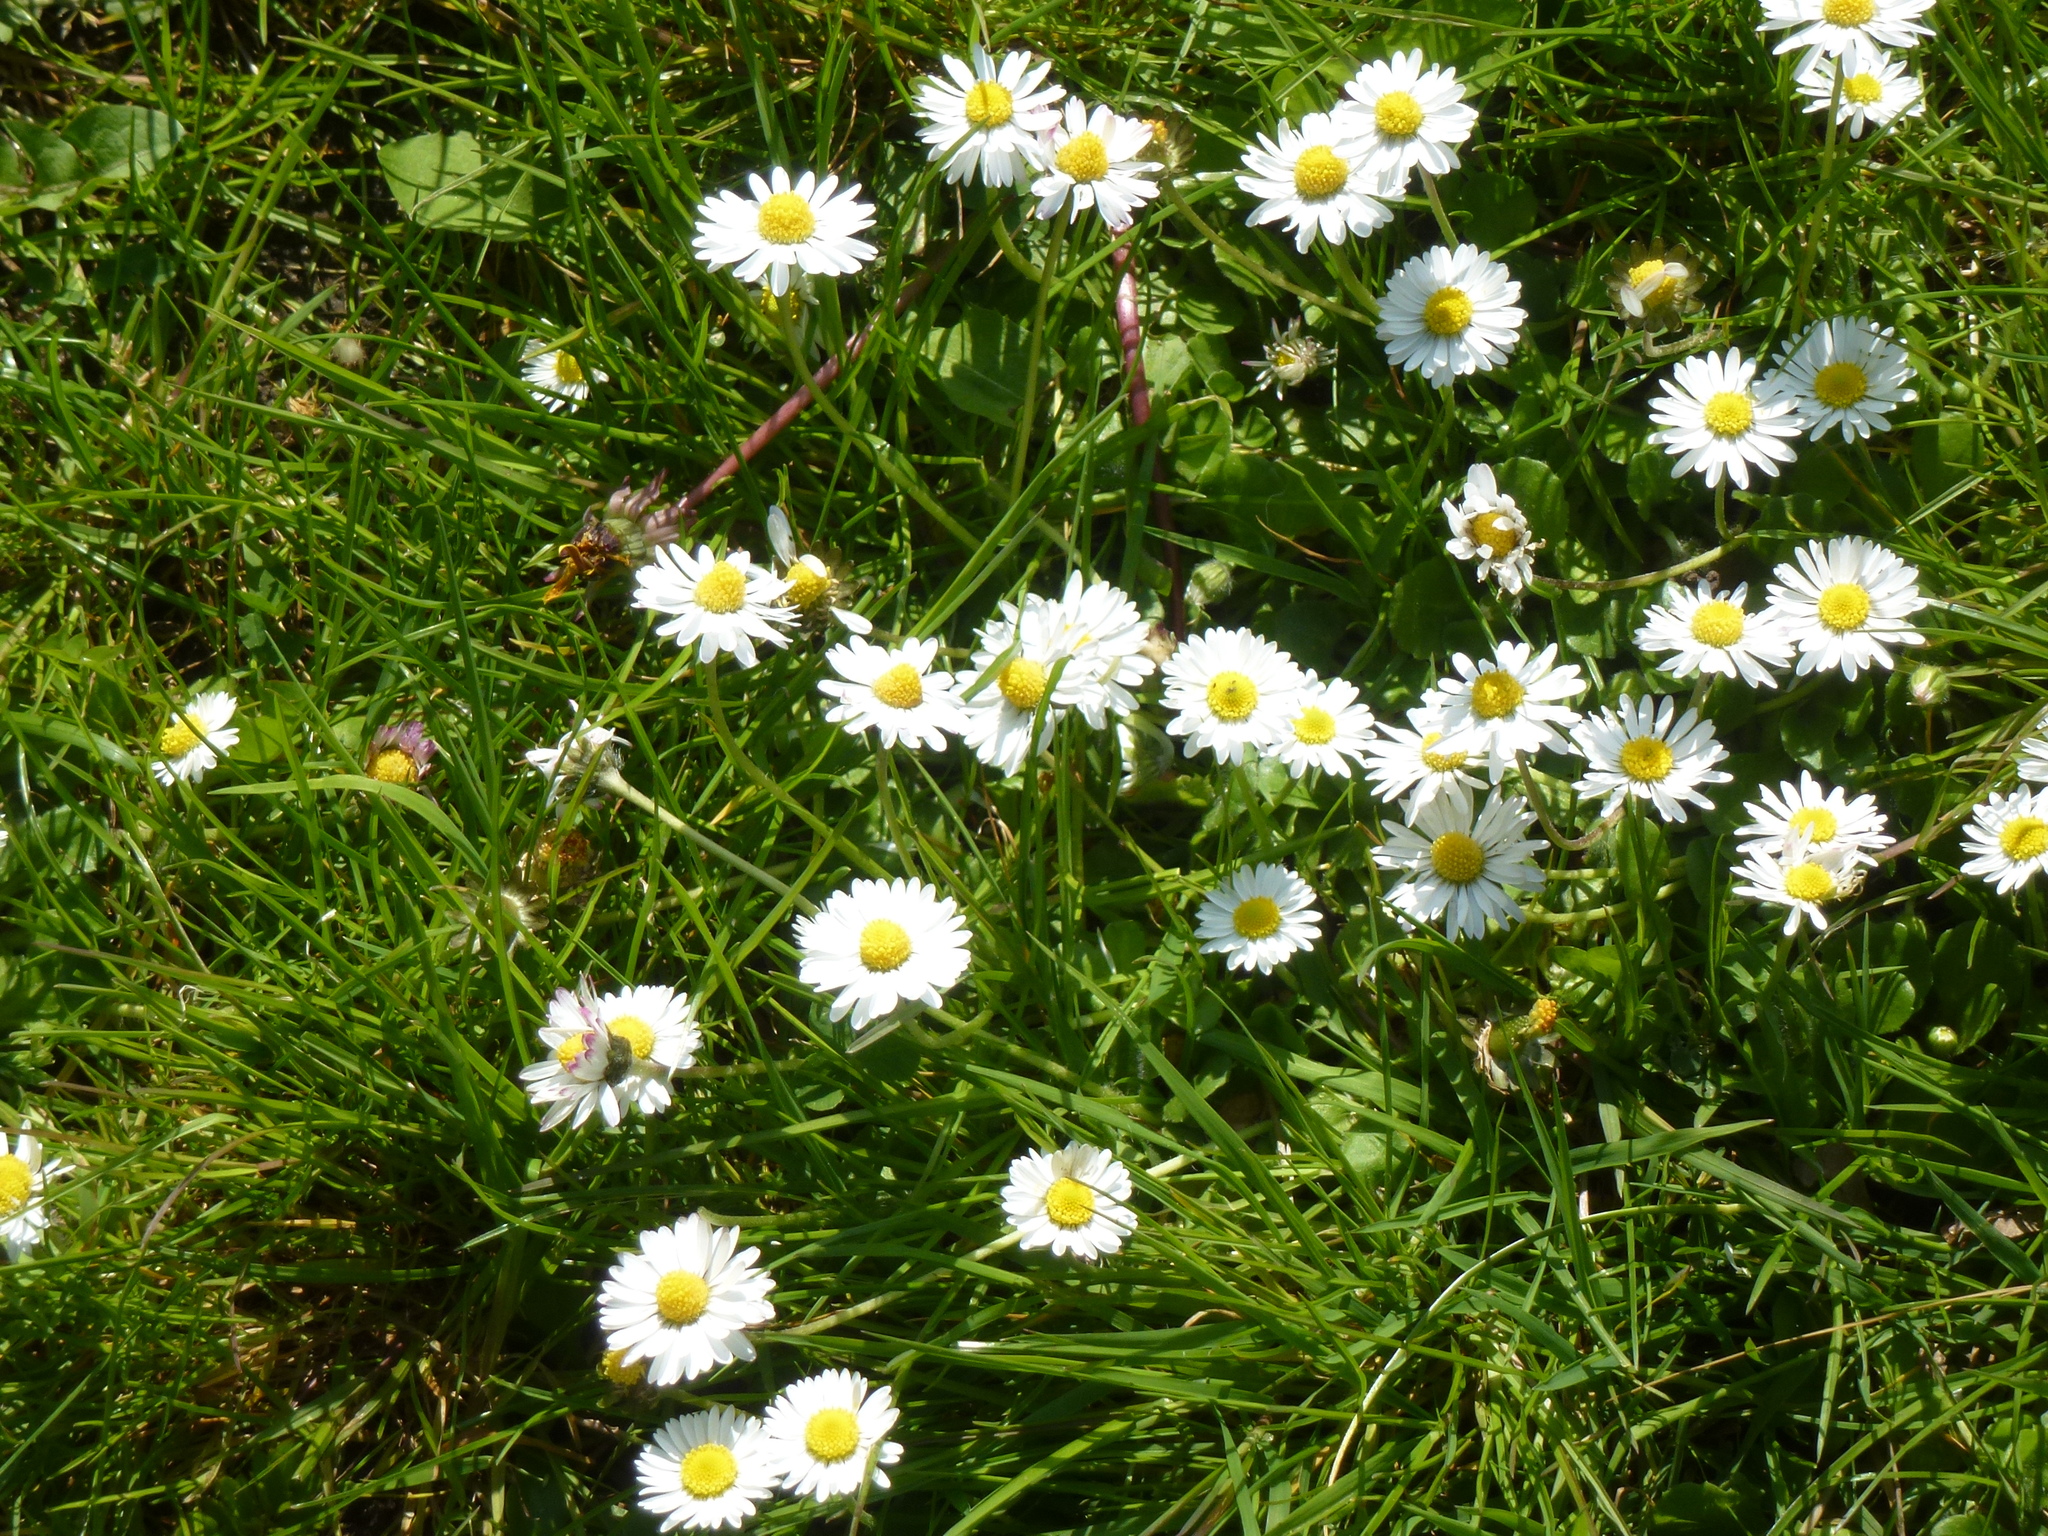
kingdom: Plantae
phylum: Tracheophyta
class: Magnoliopsida
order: Asterales
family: Asteraceae
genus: Bellis
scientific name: Bellis perennis
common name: Lawndaisy
